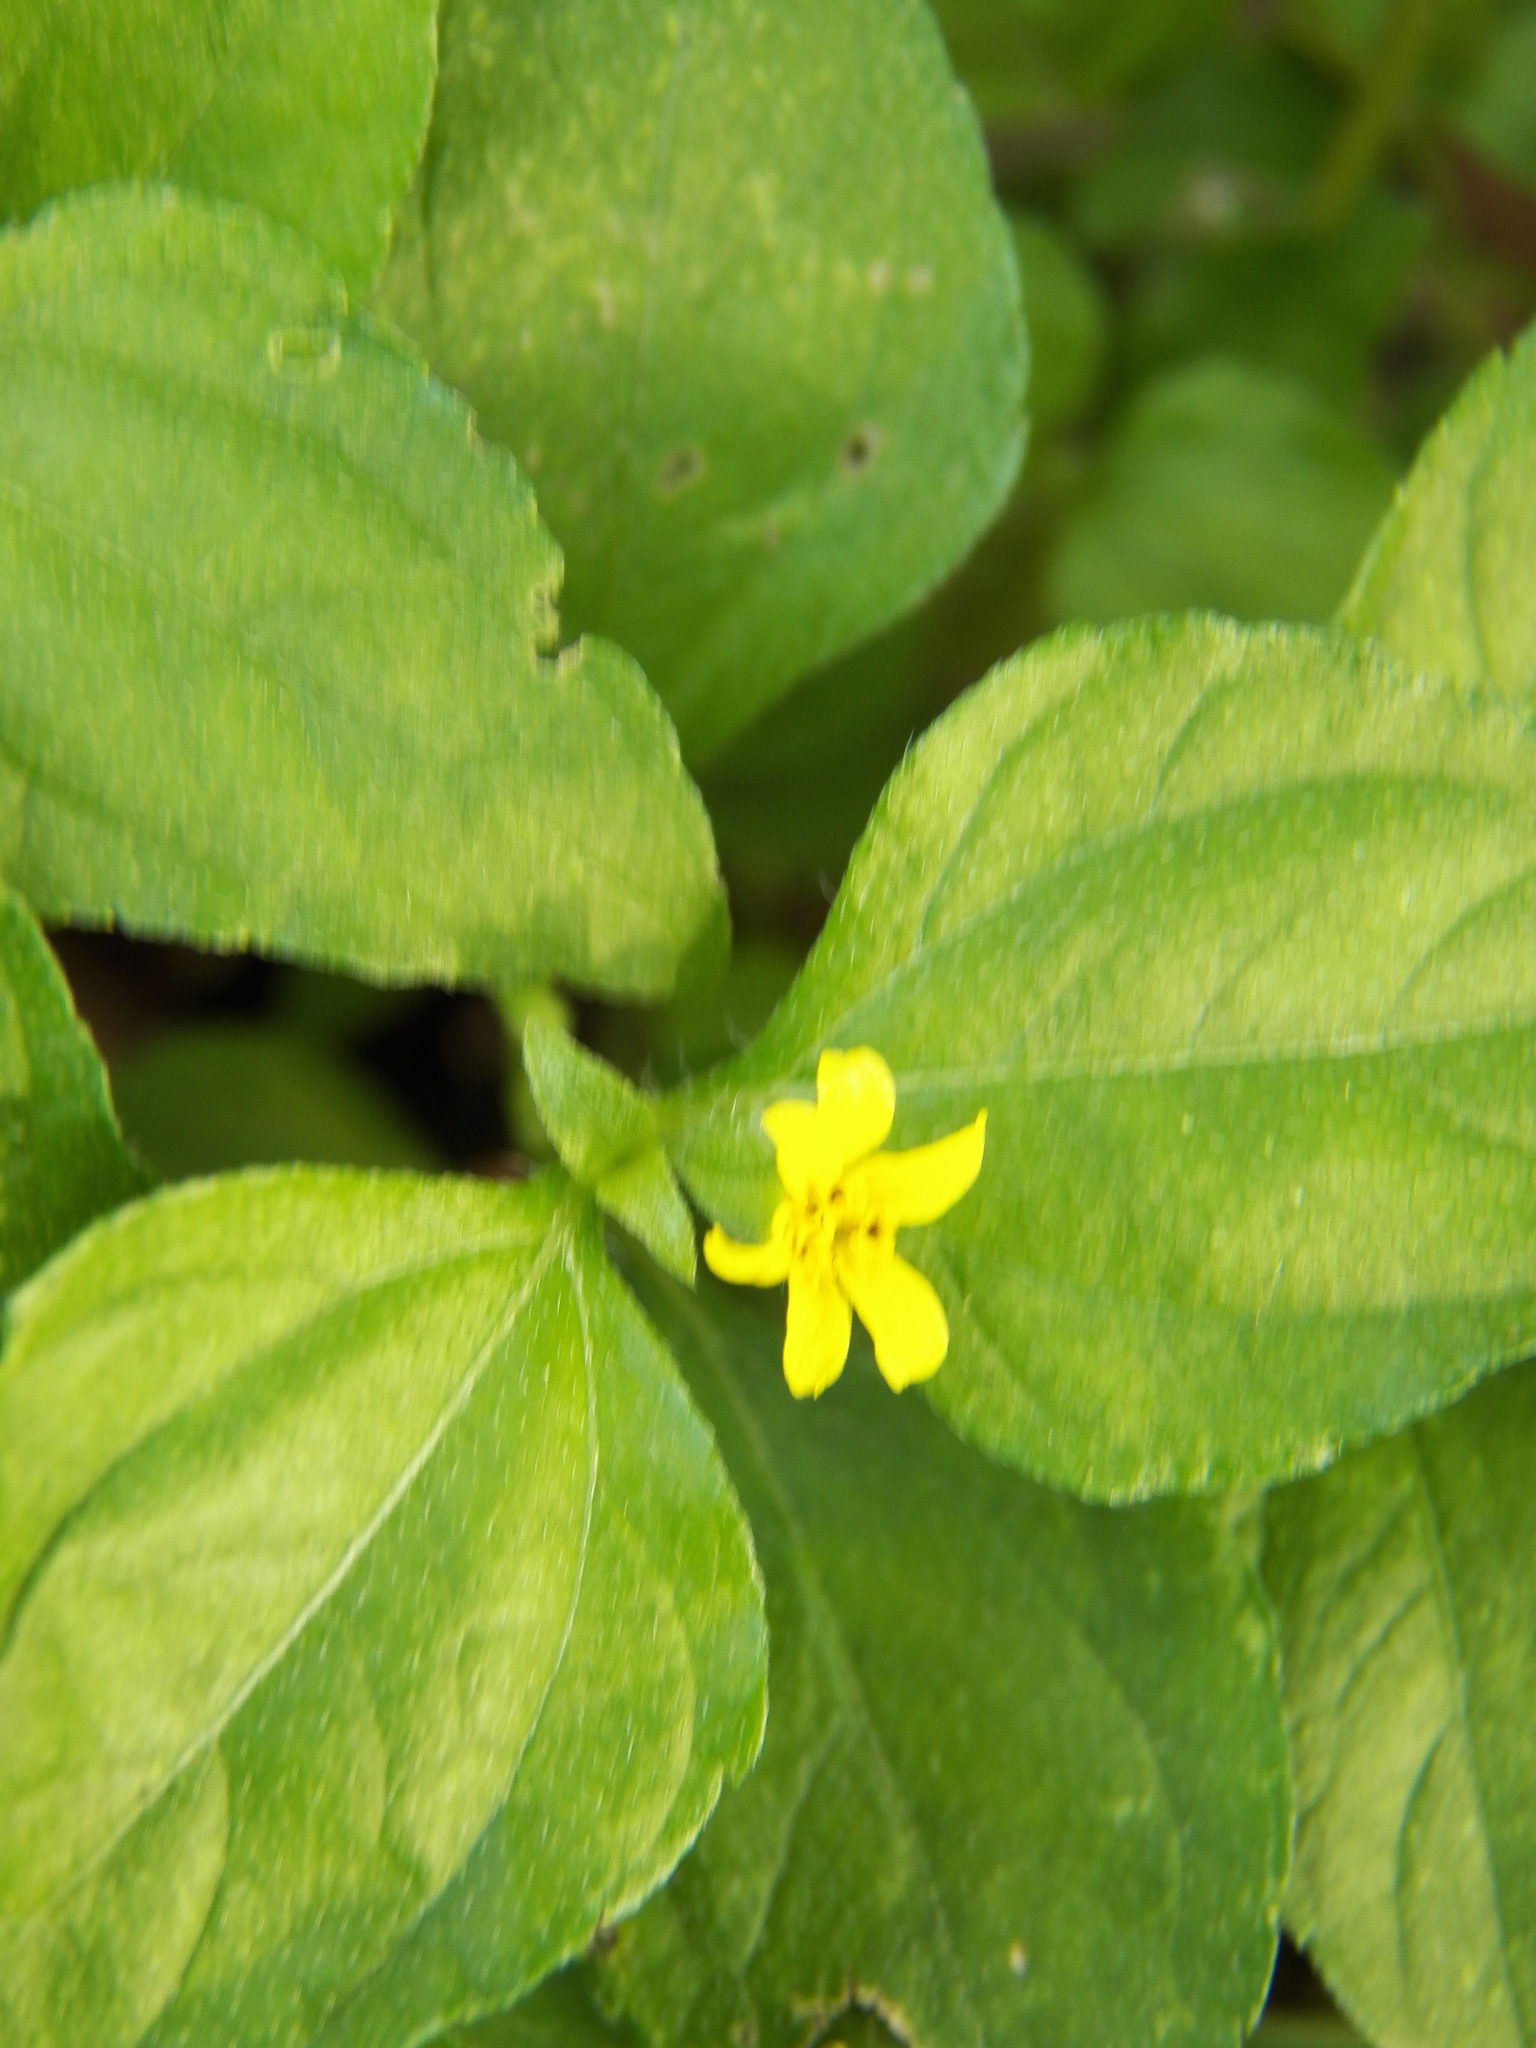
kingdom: Plantae
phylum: Tracheophyta
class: Magnoliopsida
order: Asterales
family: Asteraceae
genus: Calyptocarpus
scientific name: Calyptocarpus vialis
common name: Straggler daisy
